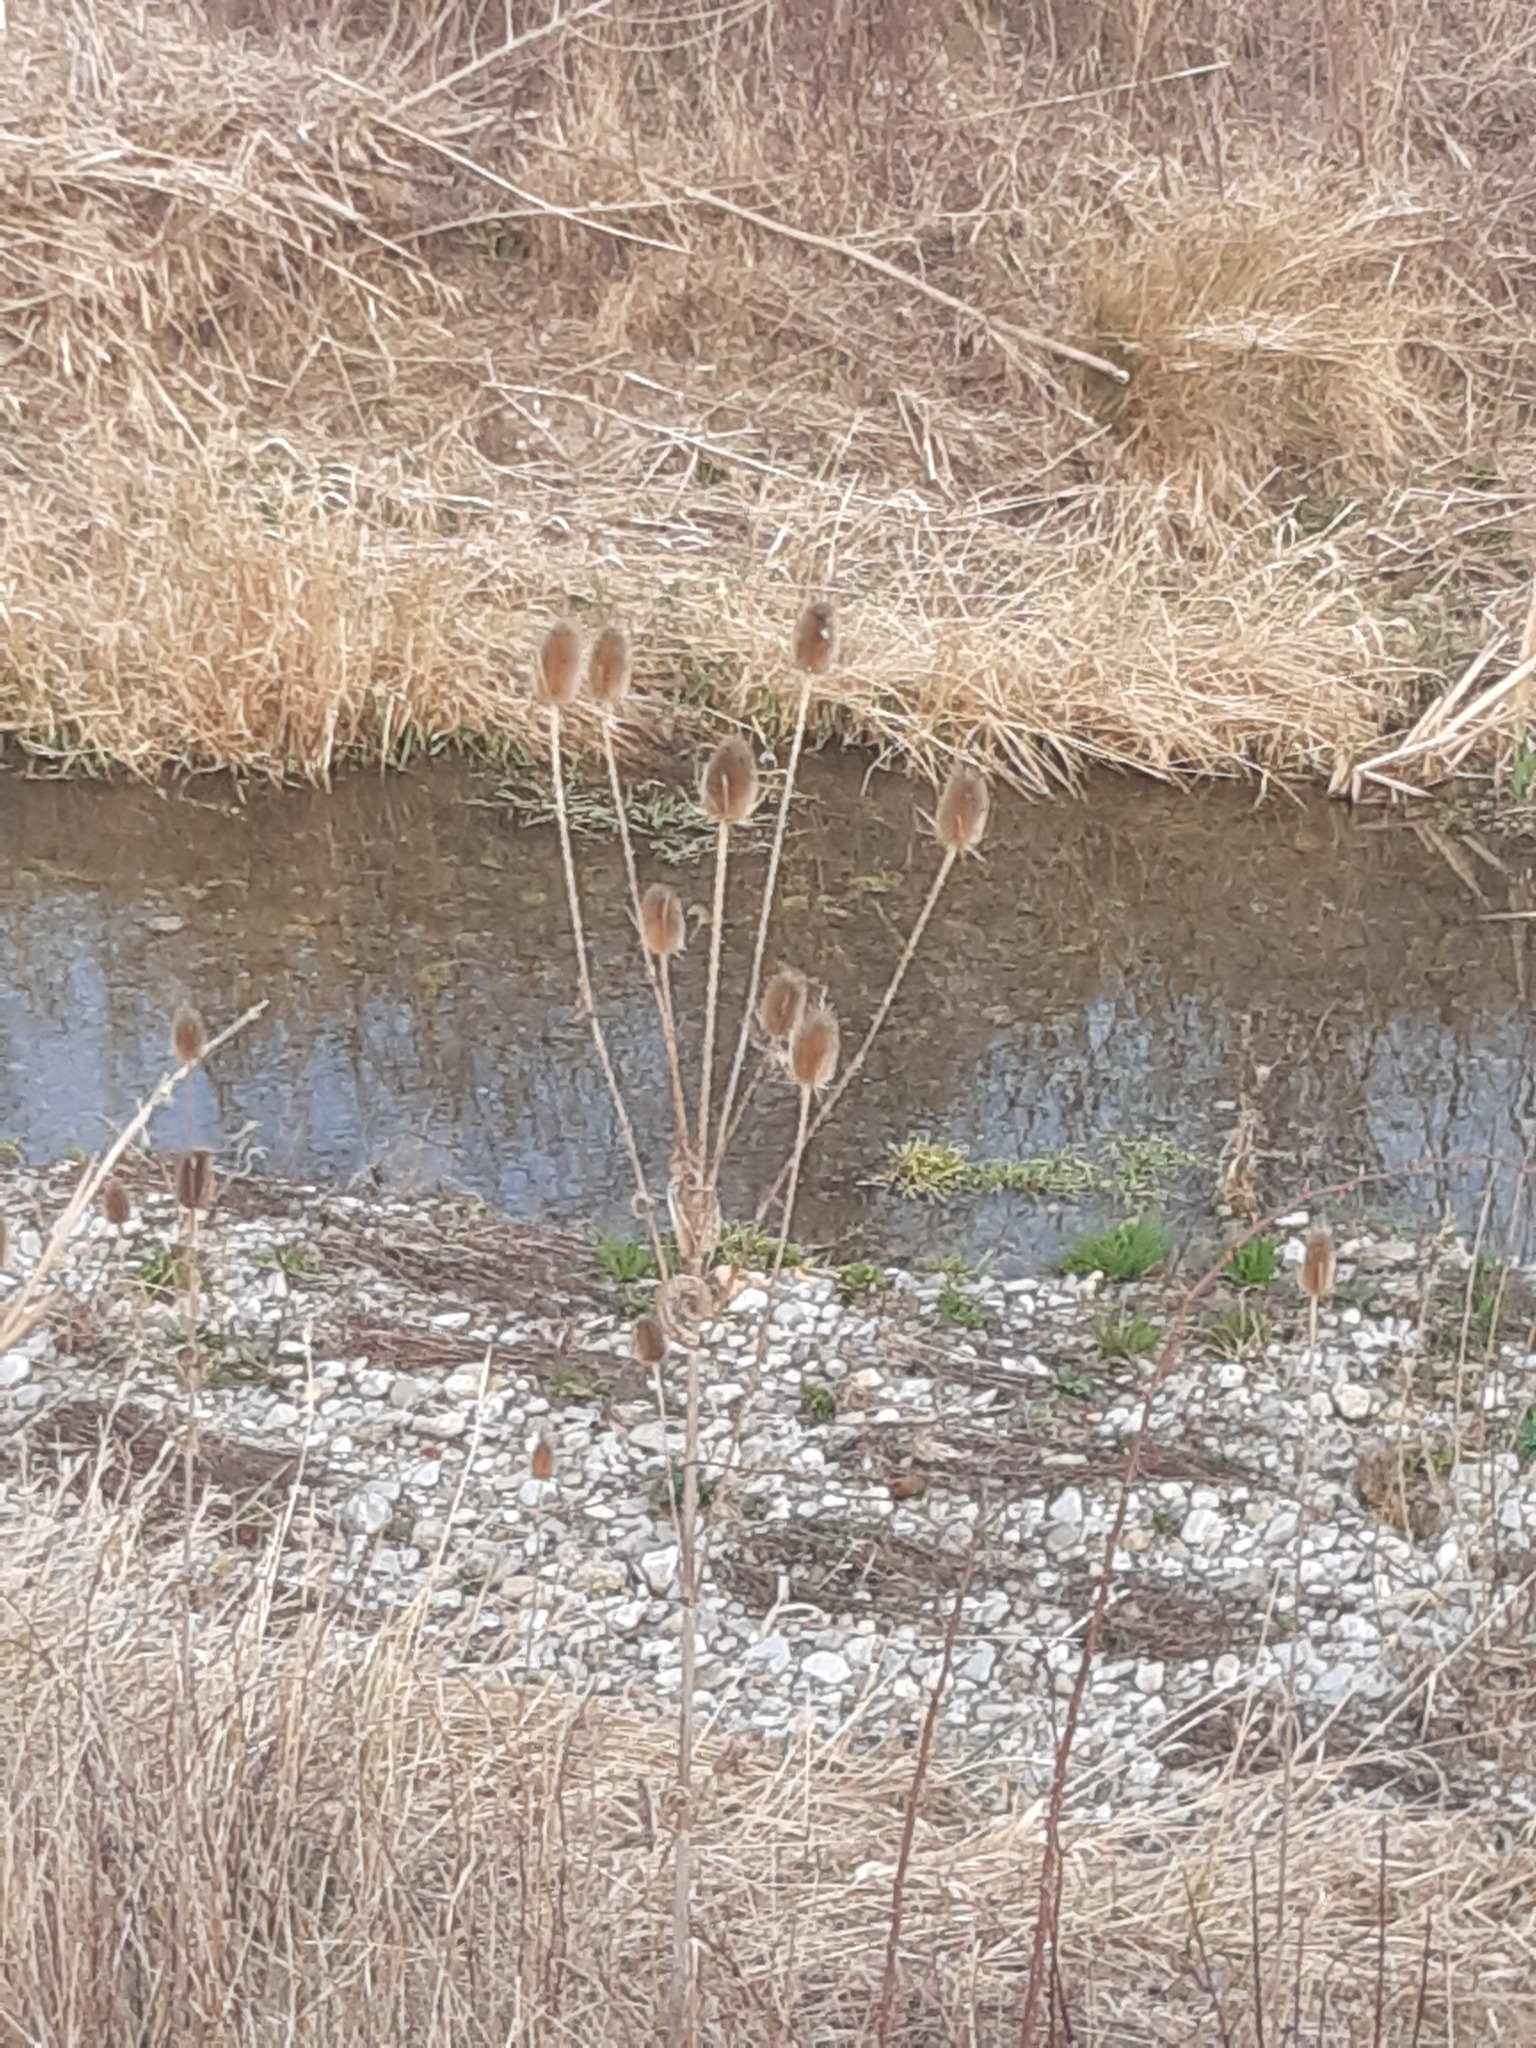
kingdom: Plantae
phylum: Tracheophyta
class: Magnoliopsida
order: Dipsacales
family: Caprifoliaceae
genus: Dipsacus
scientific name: Dipsacus fullonum
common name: Teasel
